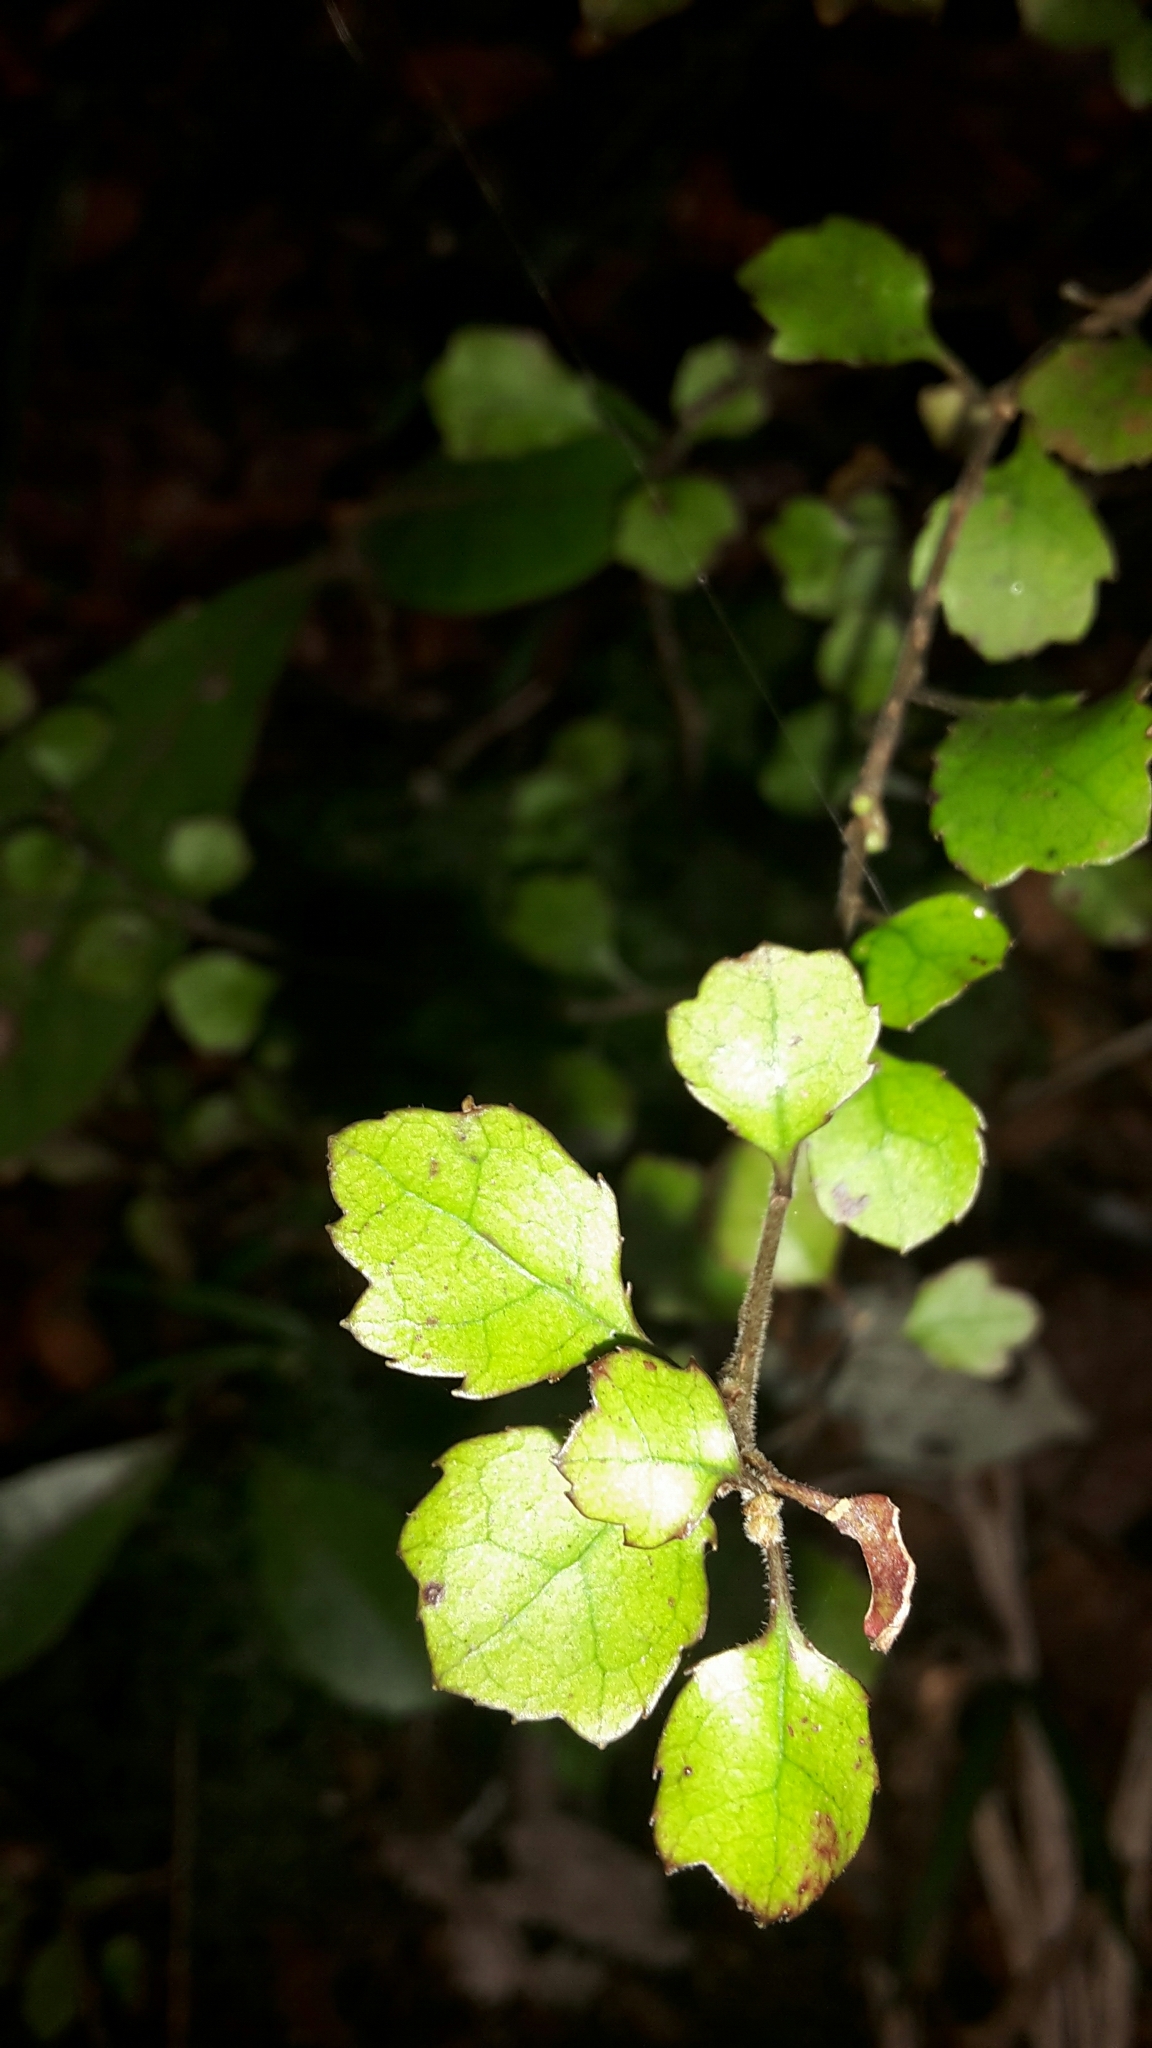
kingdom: Plantae
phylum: Tracheophyta
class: Magnoliopsida
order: Asterales
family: Alseuosmiaceae
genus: Alseuosmia
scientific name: Alseuosmia banksii
